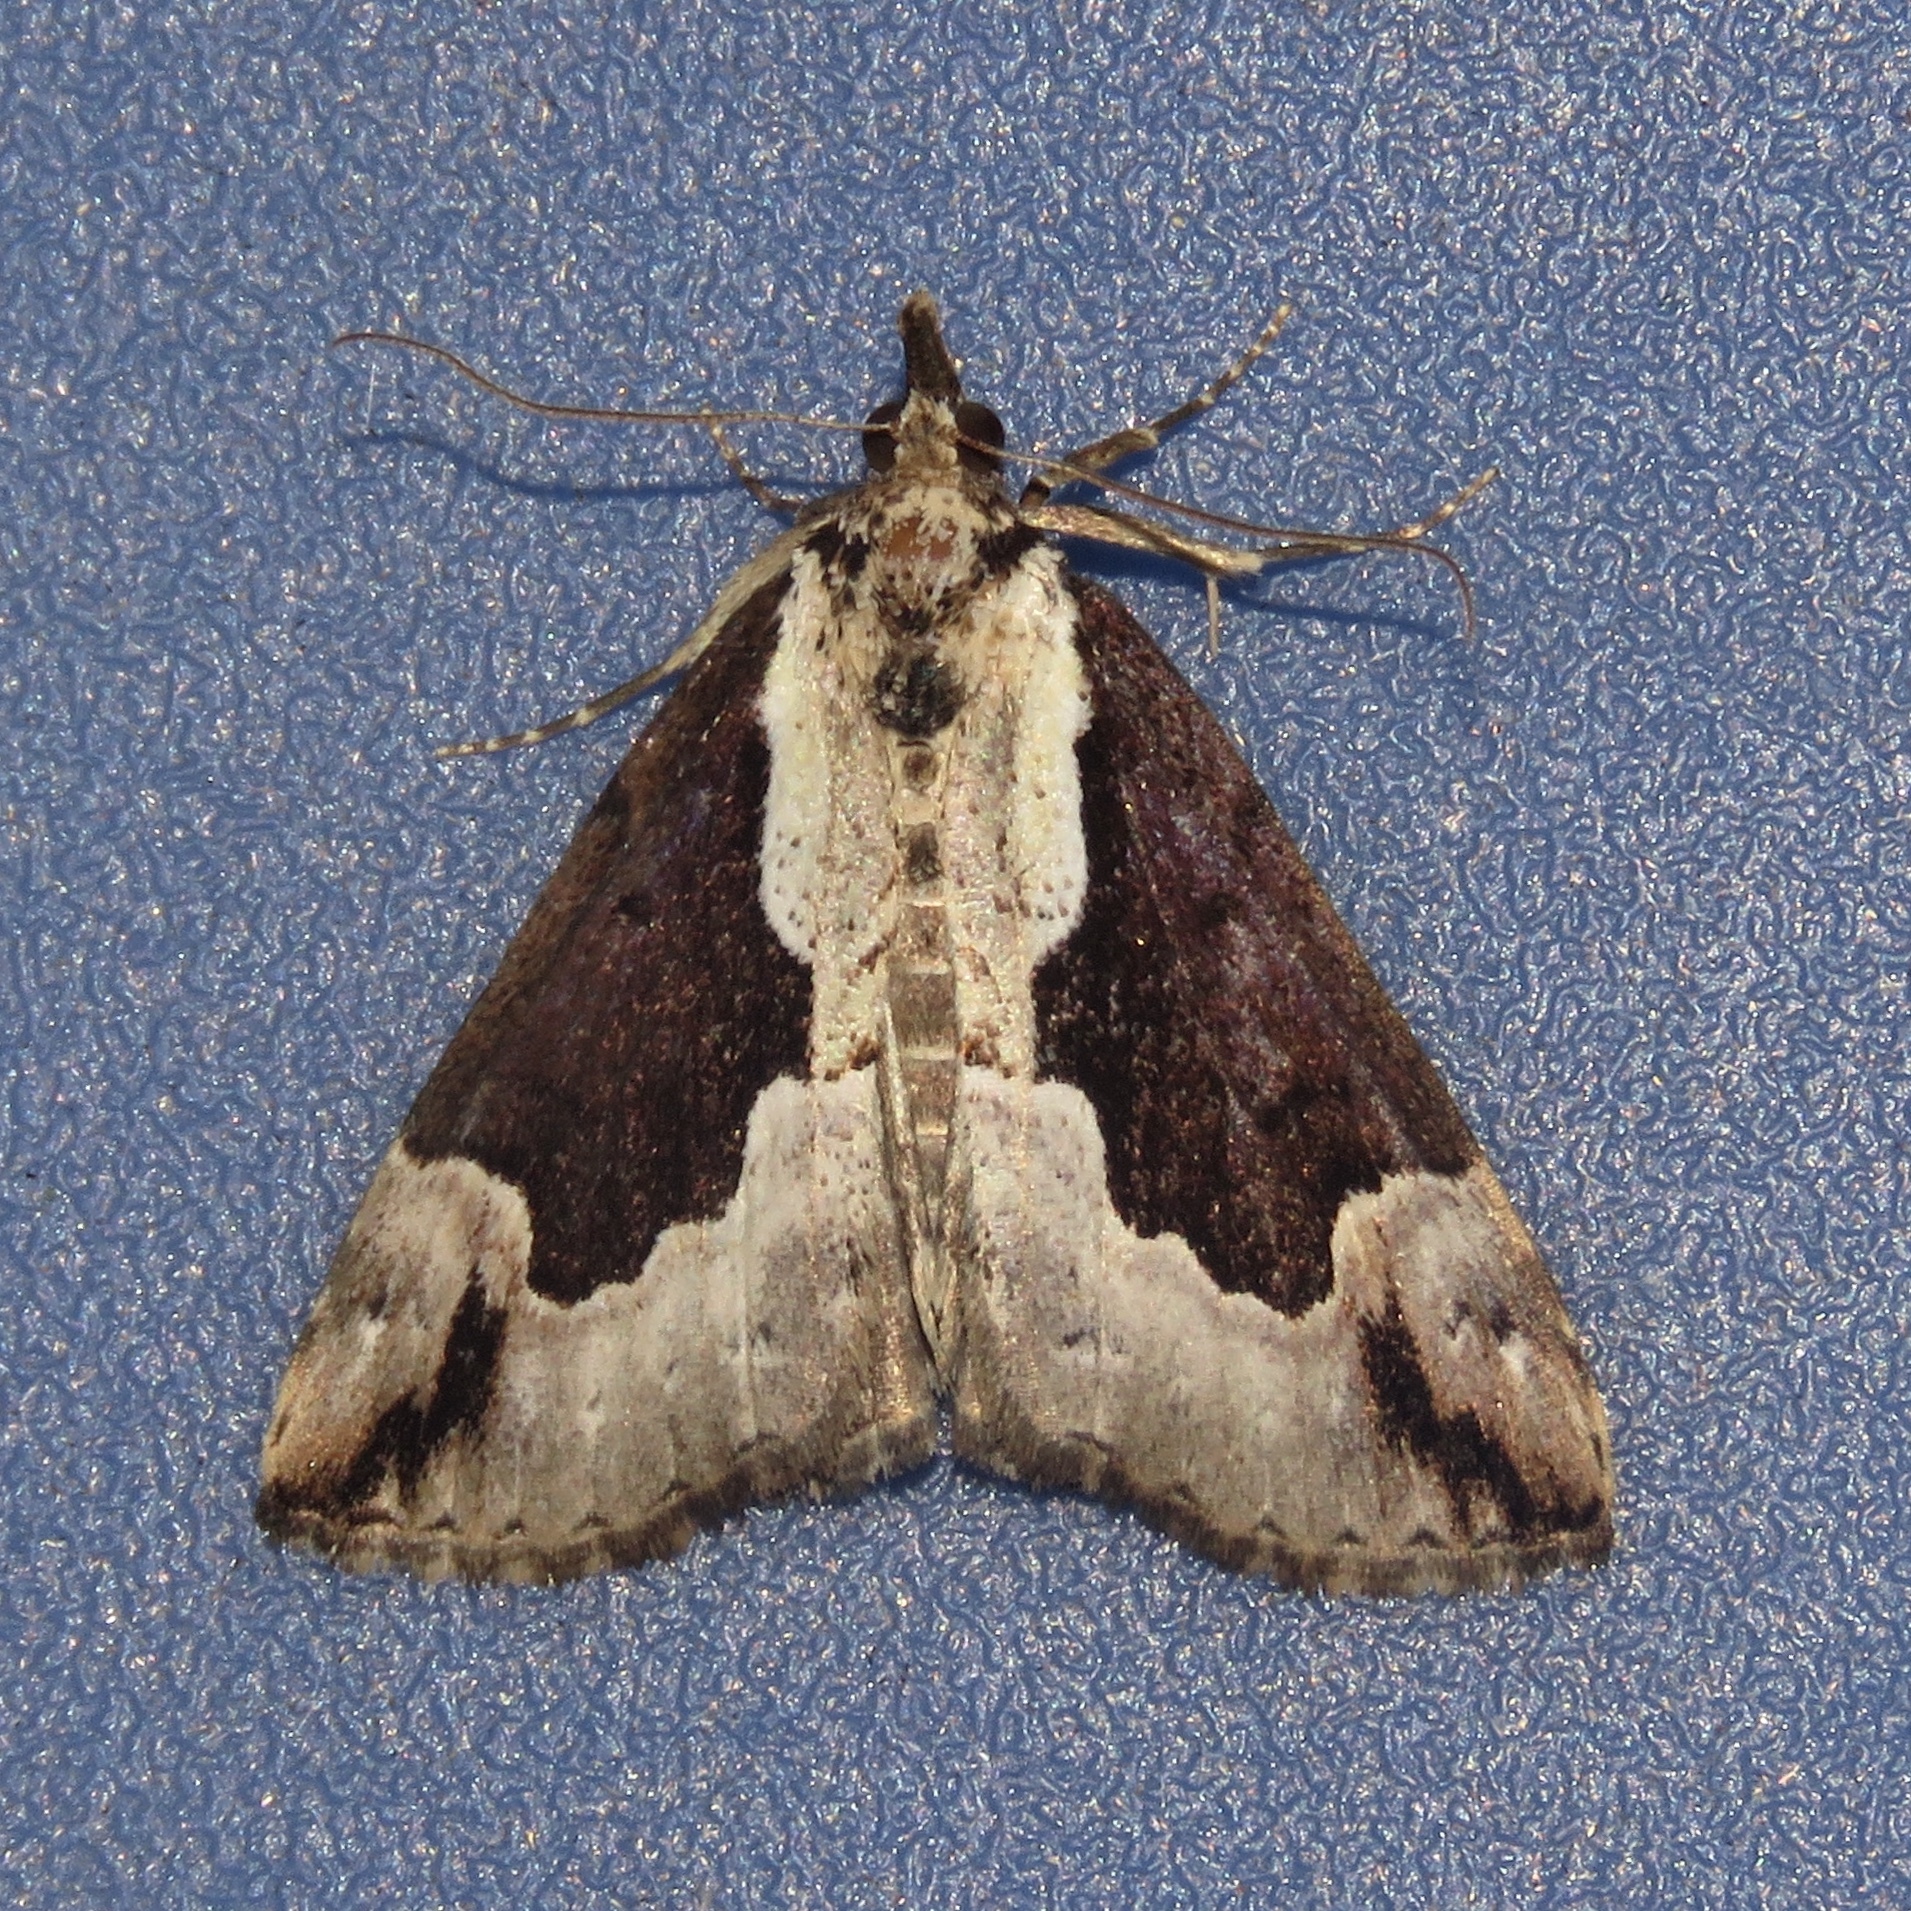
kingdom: Animalia
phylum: Arthropoda
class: Insecta
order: Lepidoptera
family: Erebidae
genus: Hypena
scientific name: Hypena baltimoralis
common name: Baltimore snout
